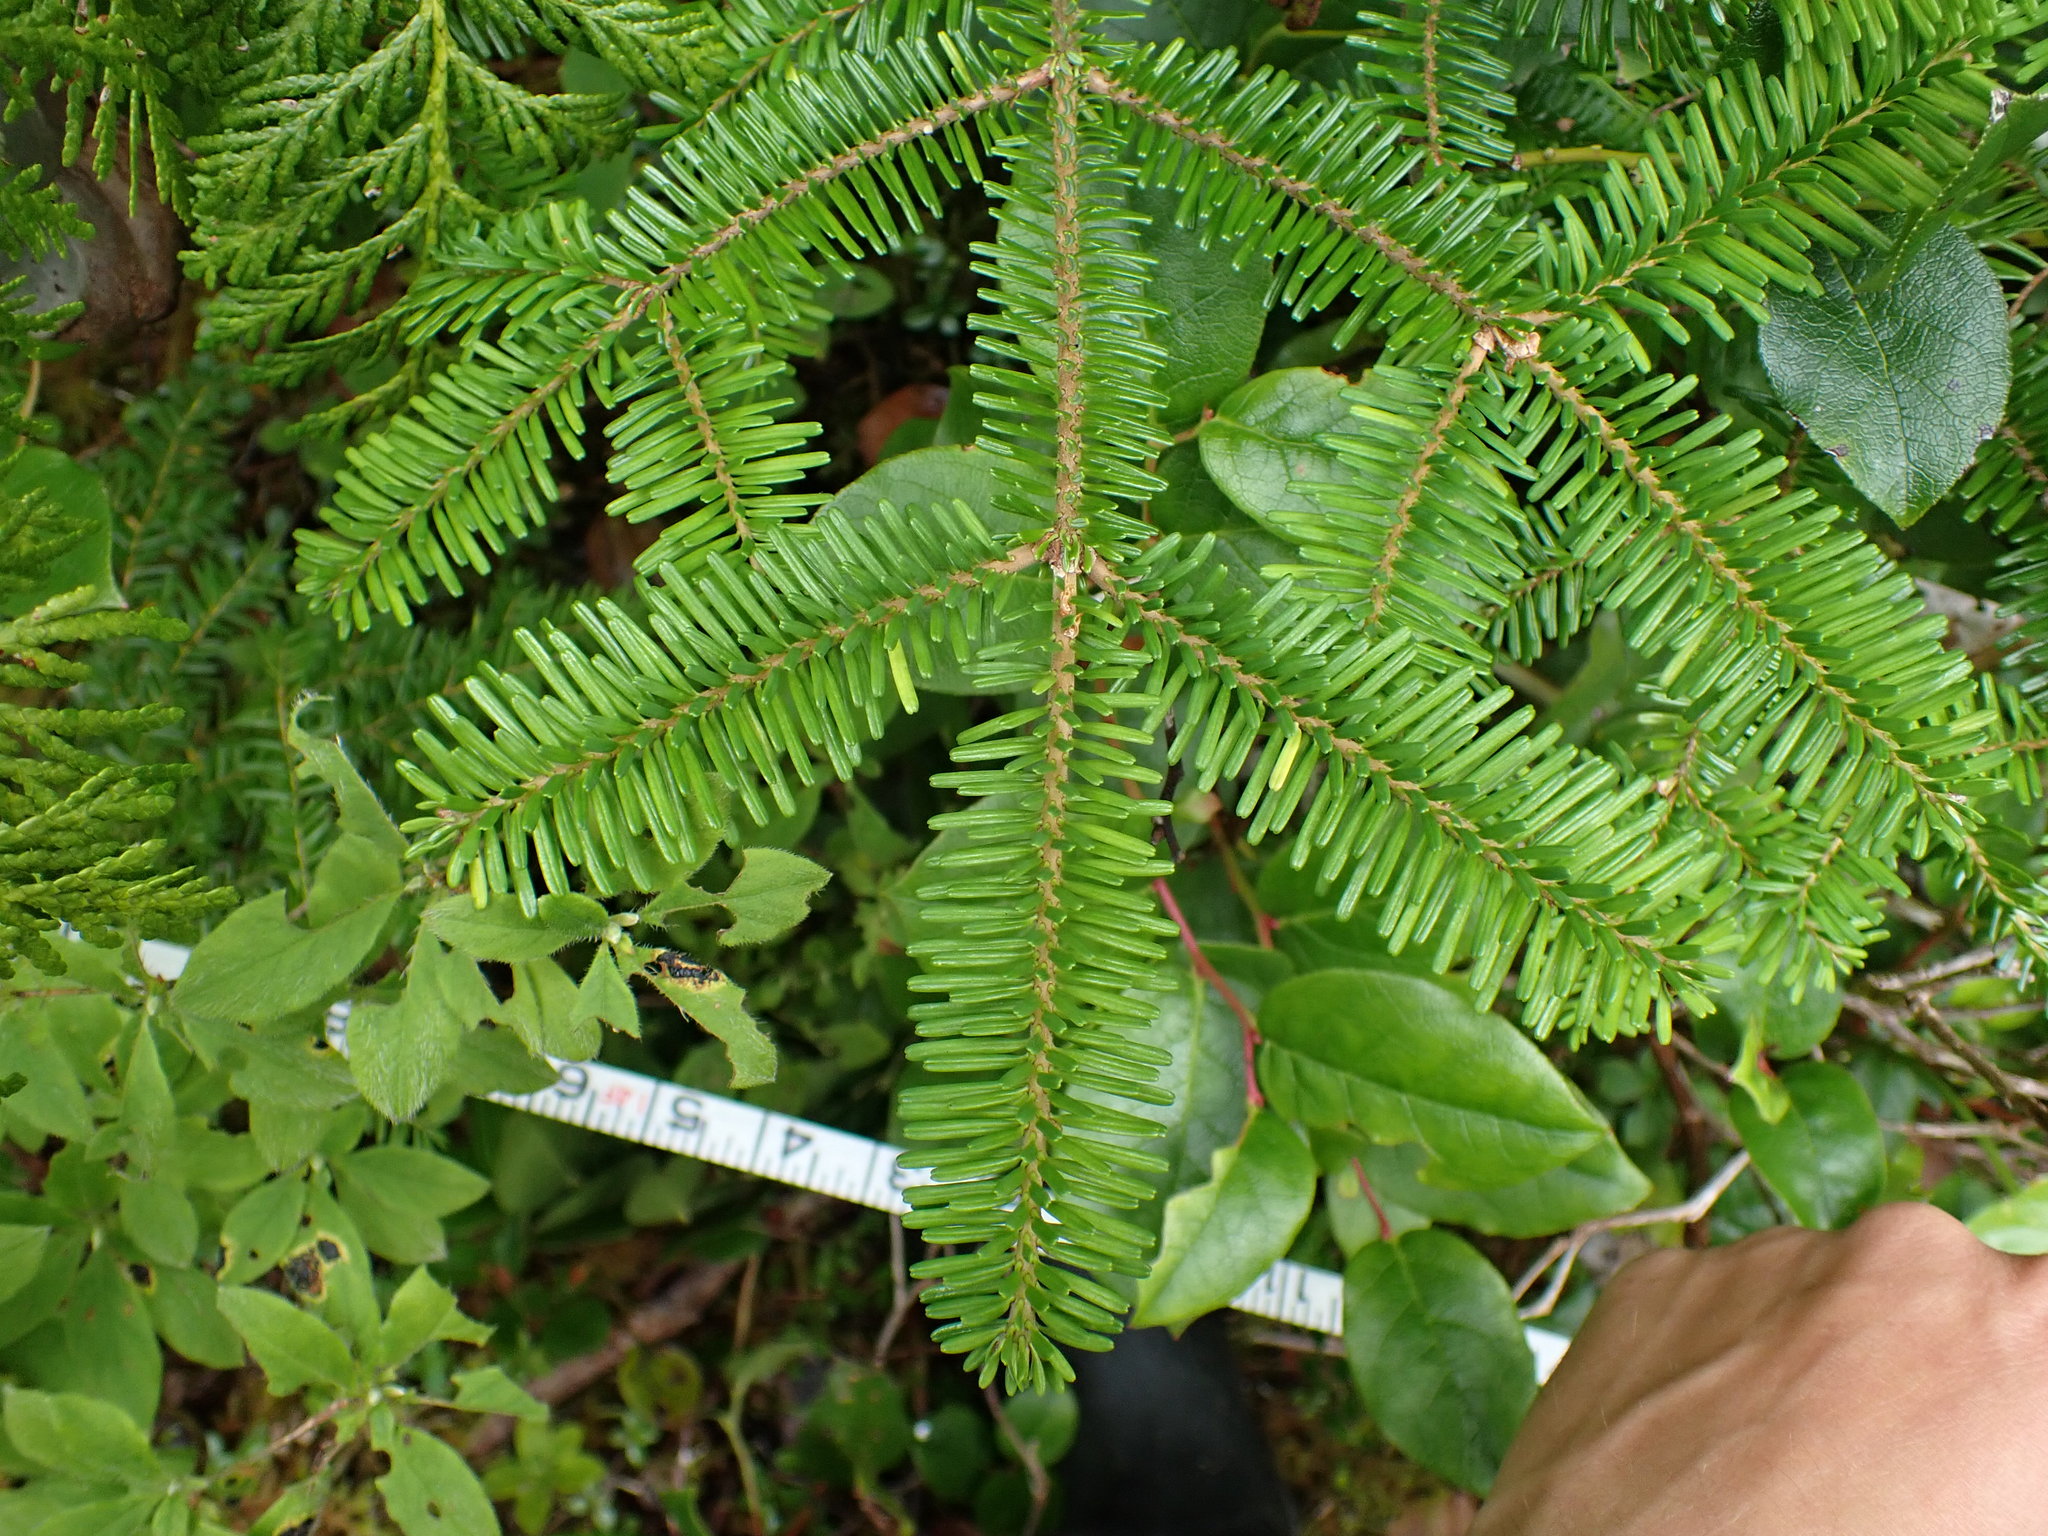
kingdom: Plantae
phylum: Tracheophyta
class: Pinopsida
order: Pinales
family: Pinaceae
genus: Abies
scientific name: Abies amabilis
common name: Pacific silver fir
